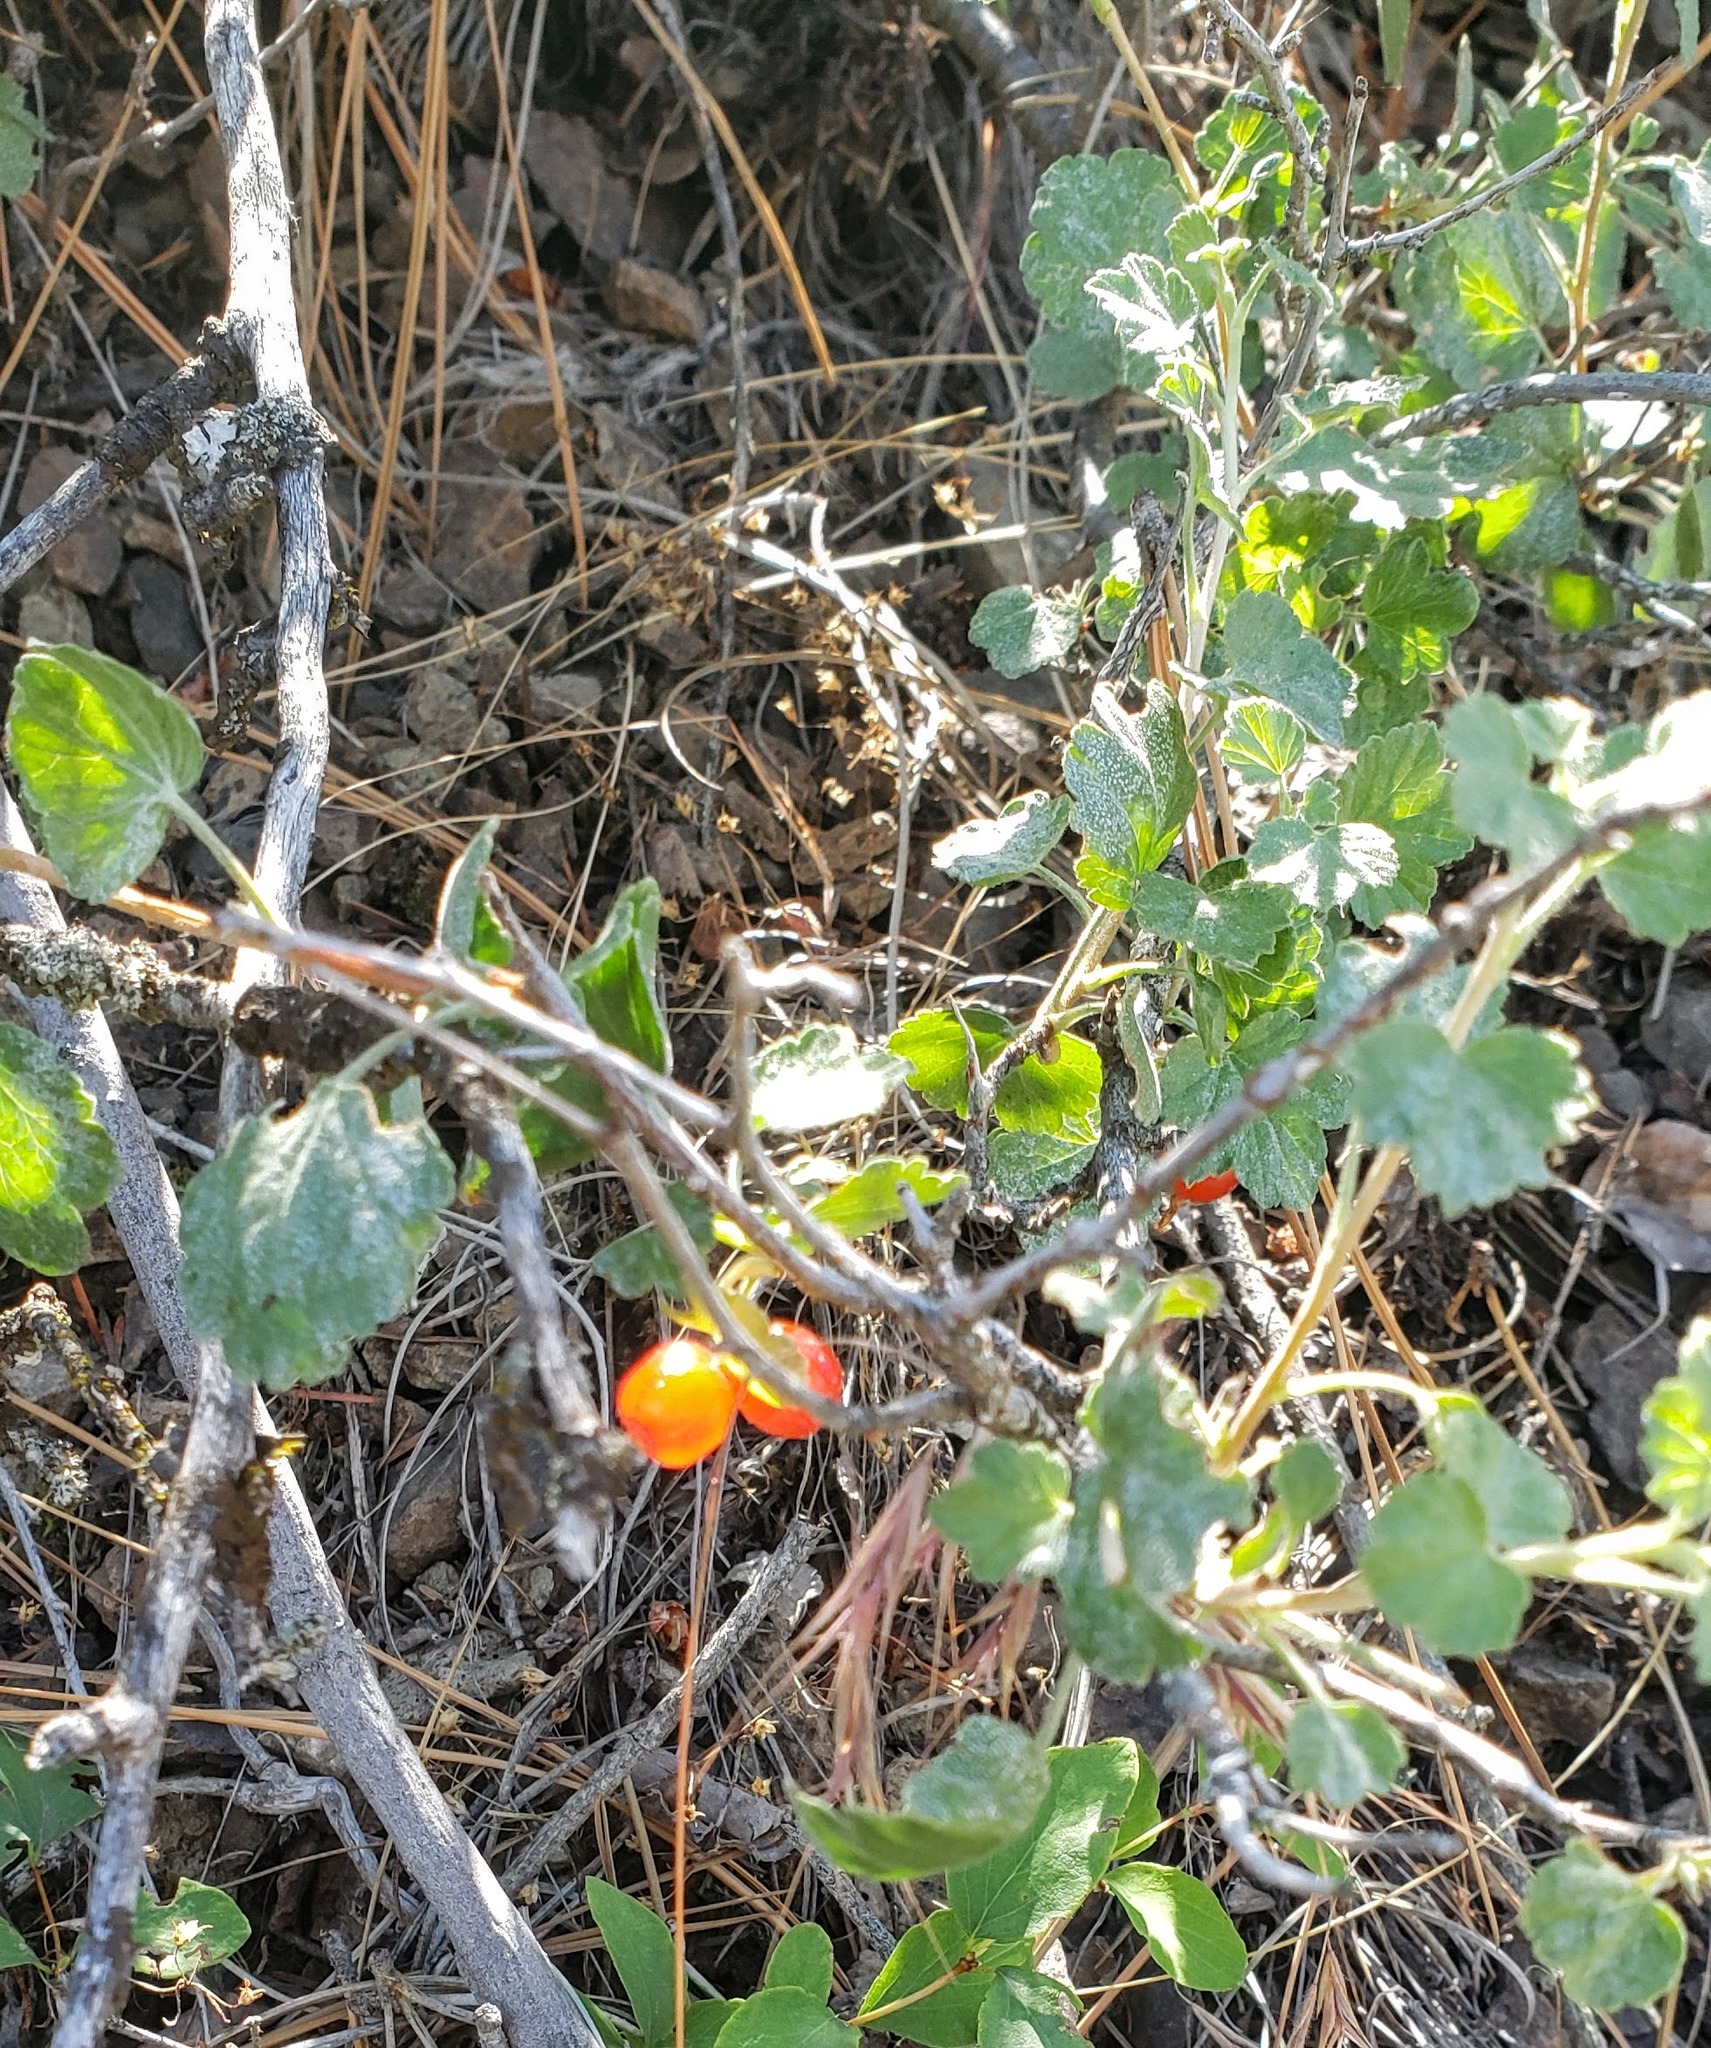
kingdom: Plantae
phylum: Tracheophyta
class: Magnoliopsida
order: Saxifragales
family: Grossulariaceae
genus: Ribes
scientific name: Ribes cereum
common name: Wax currant
